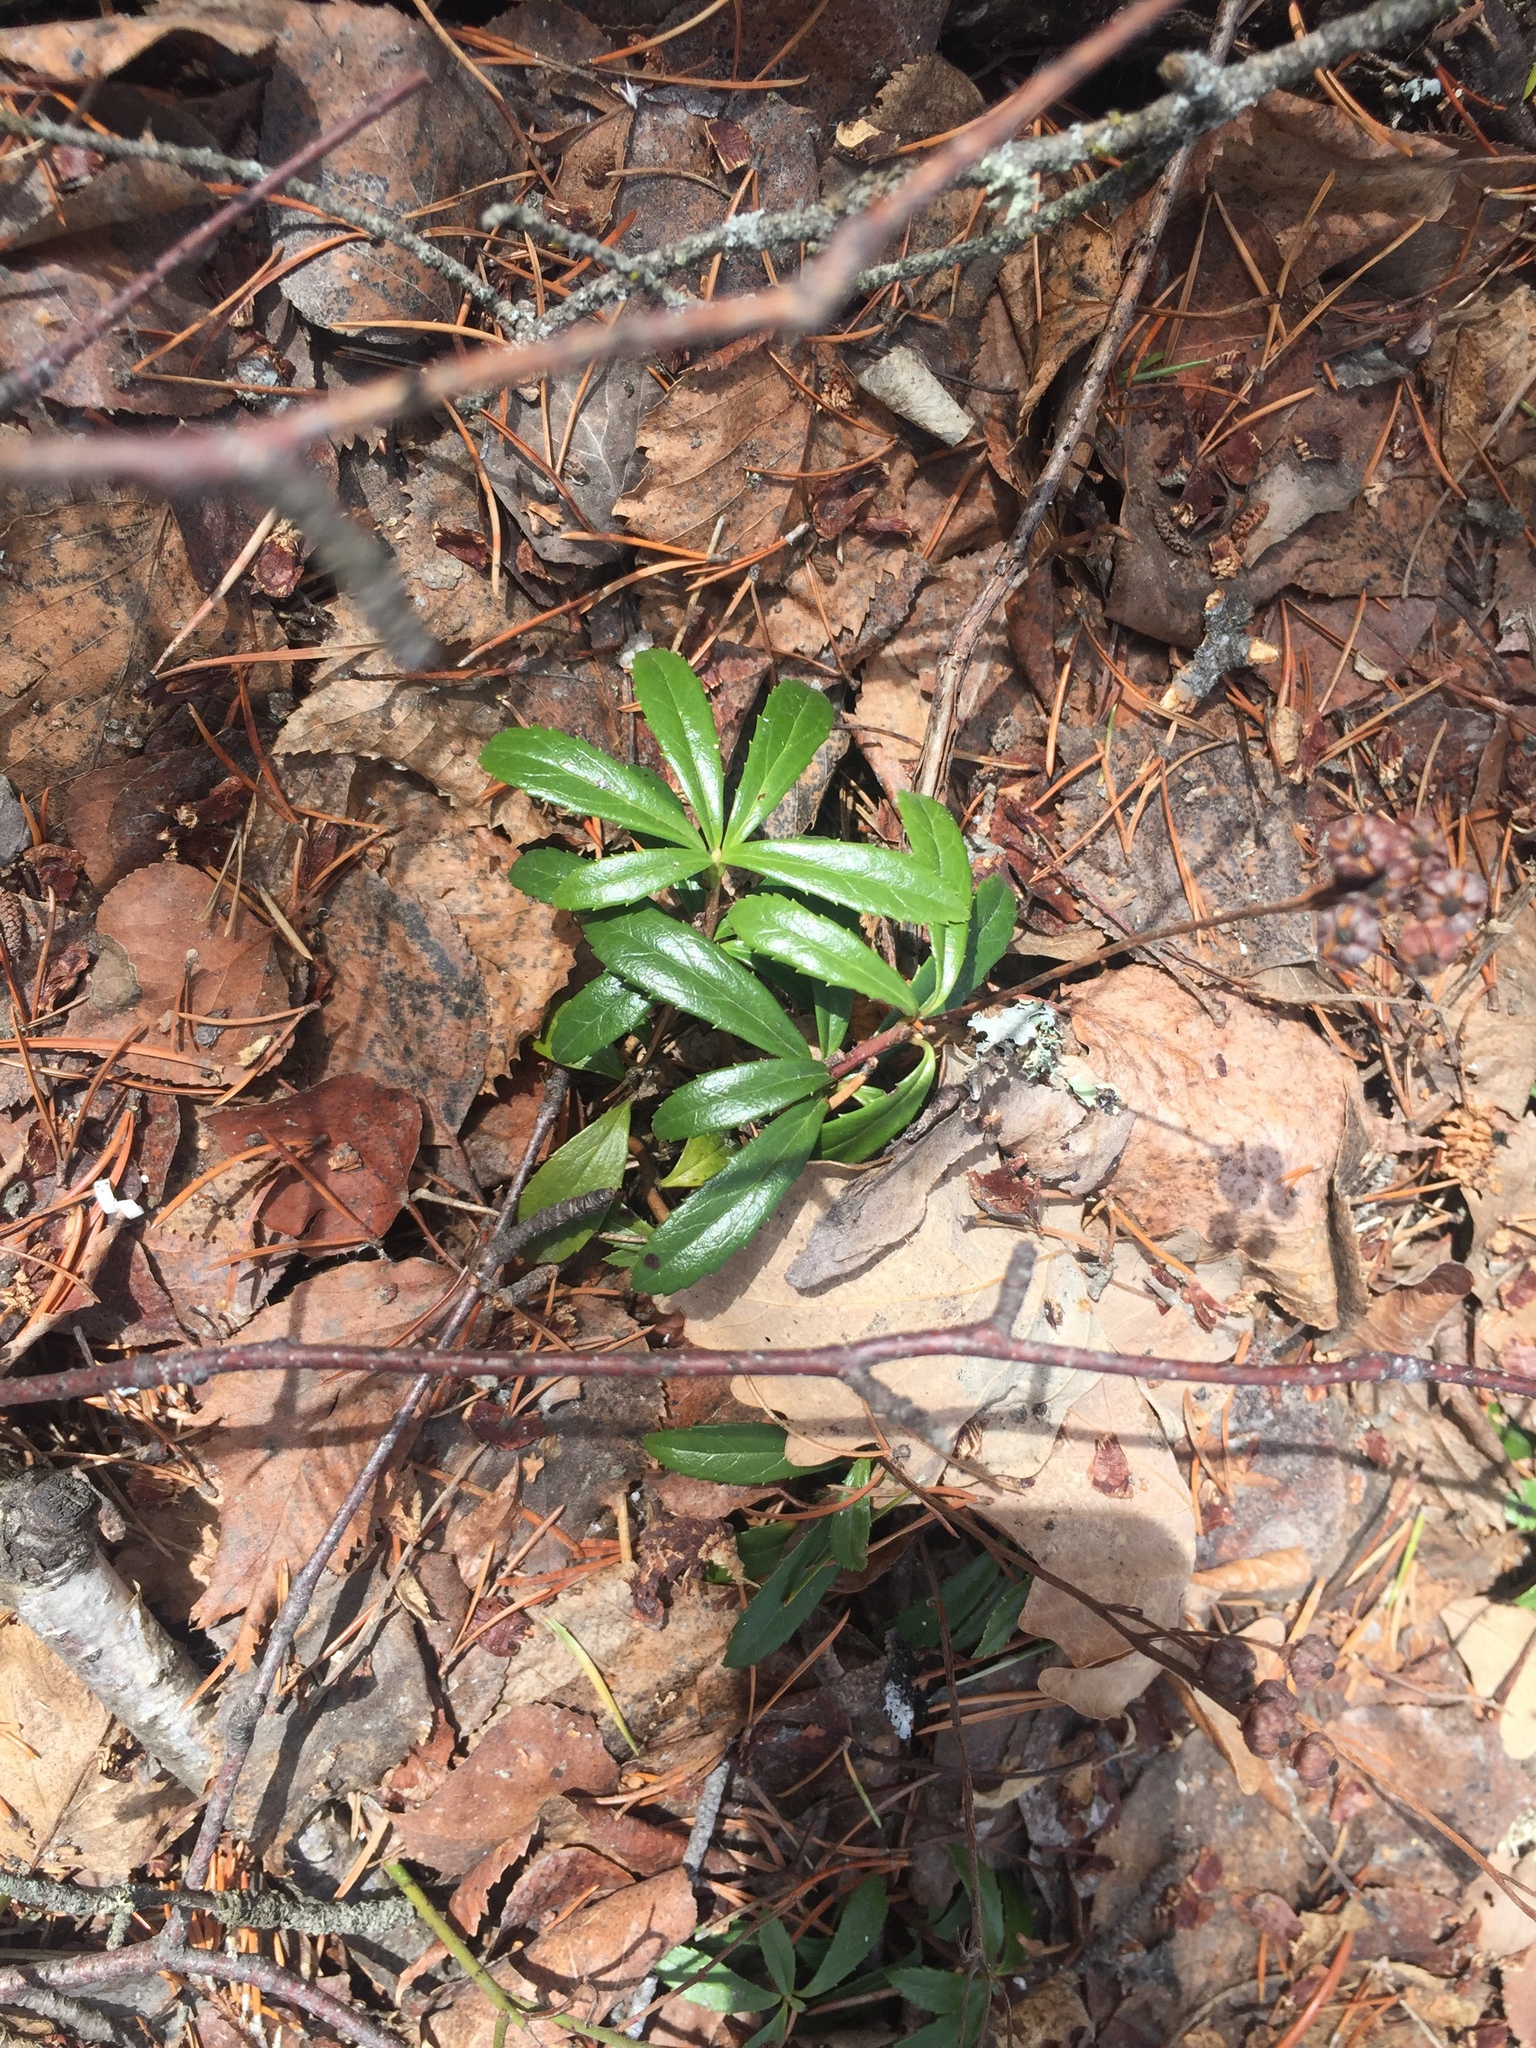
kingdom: Plantae
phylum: Tracheophyta
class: Magnoliopsida
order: Ericales
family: Ericaceae
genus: Chimaphila
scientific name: Chimaphila umbellata
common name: Pipsissewa
